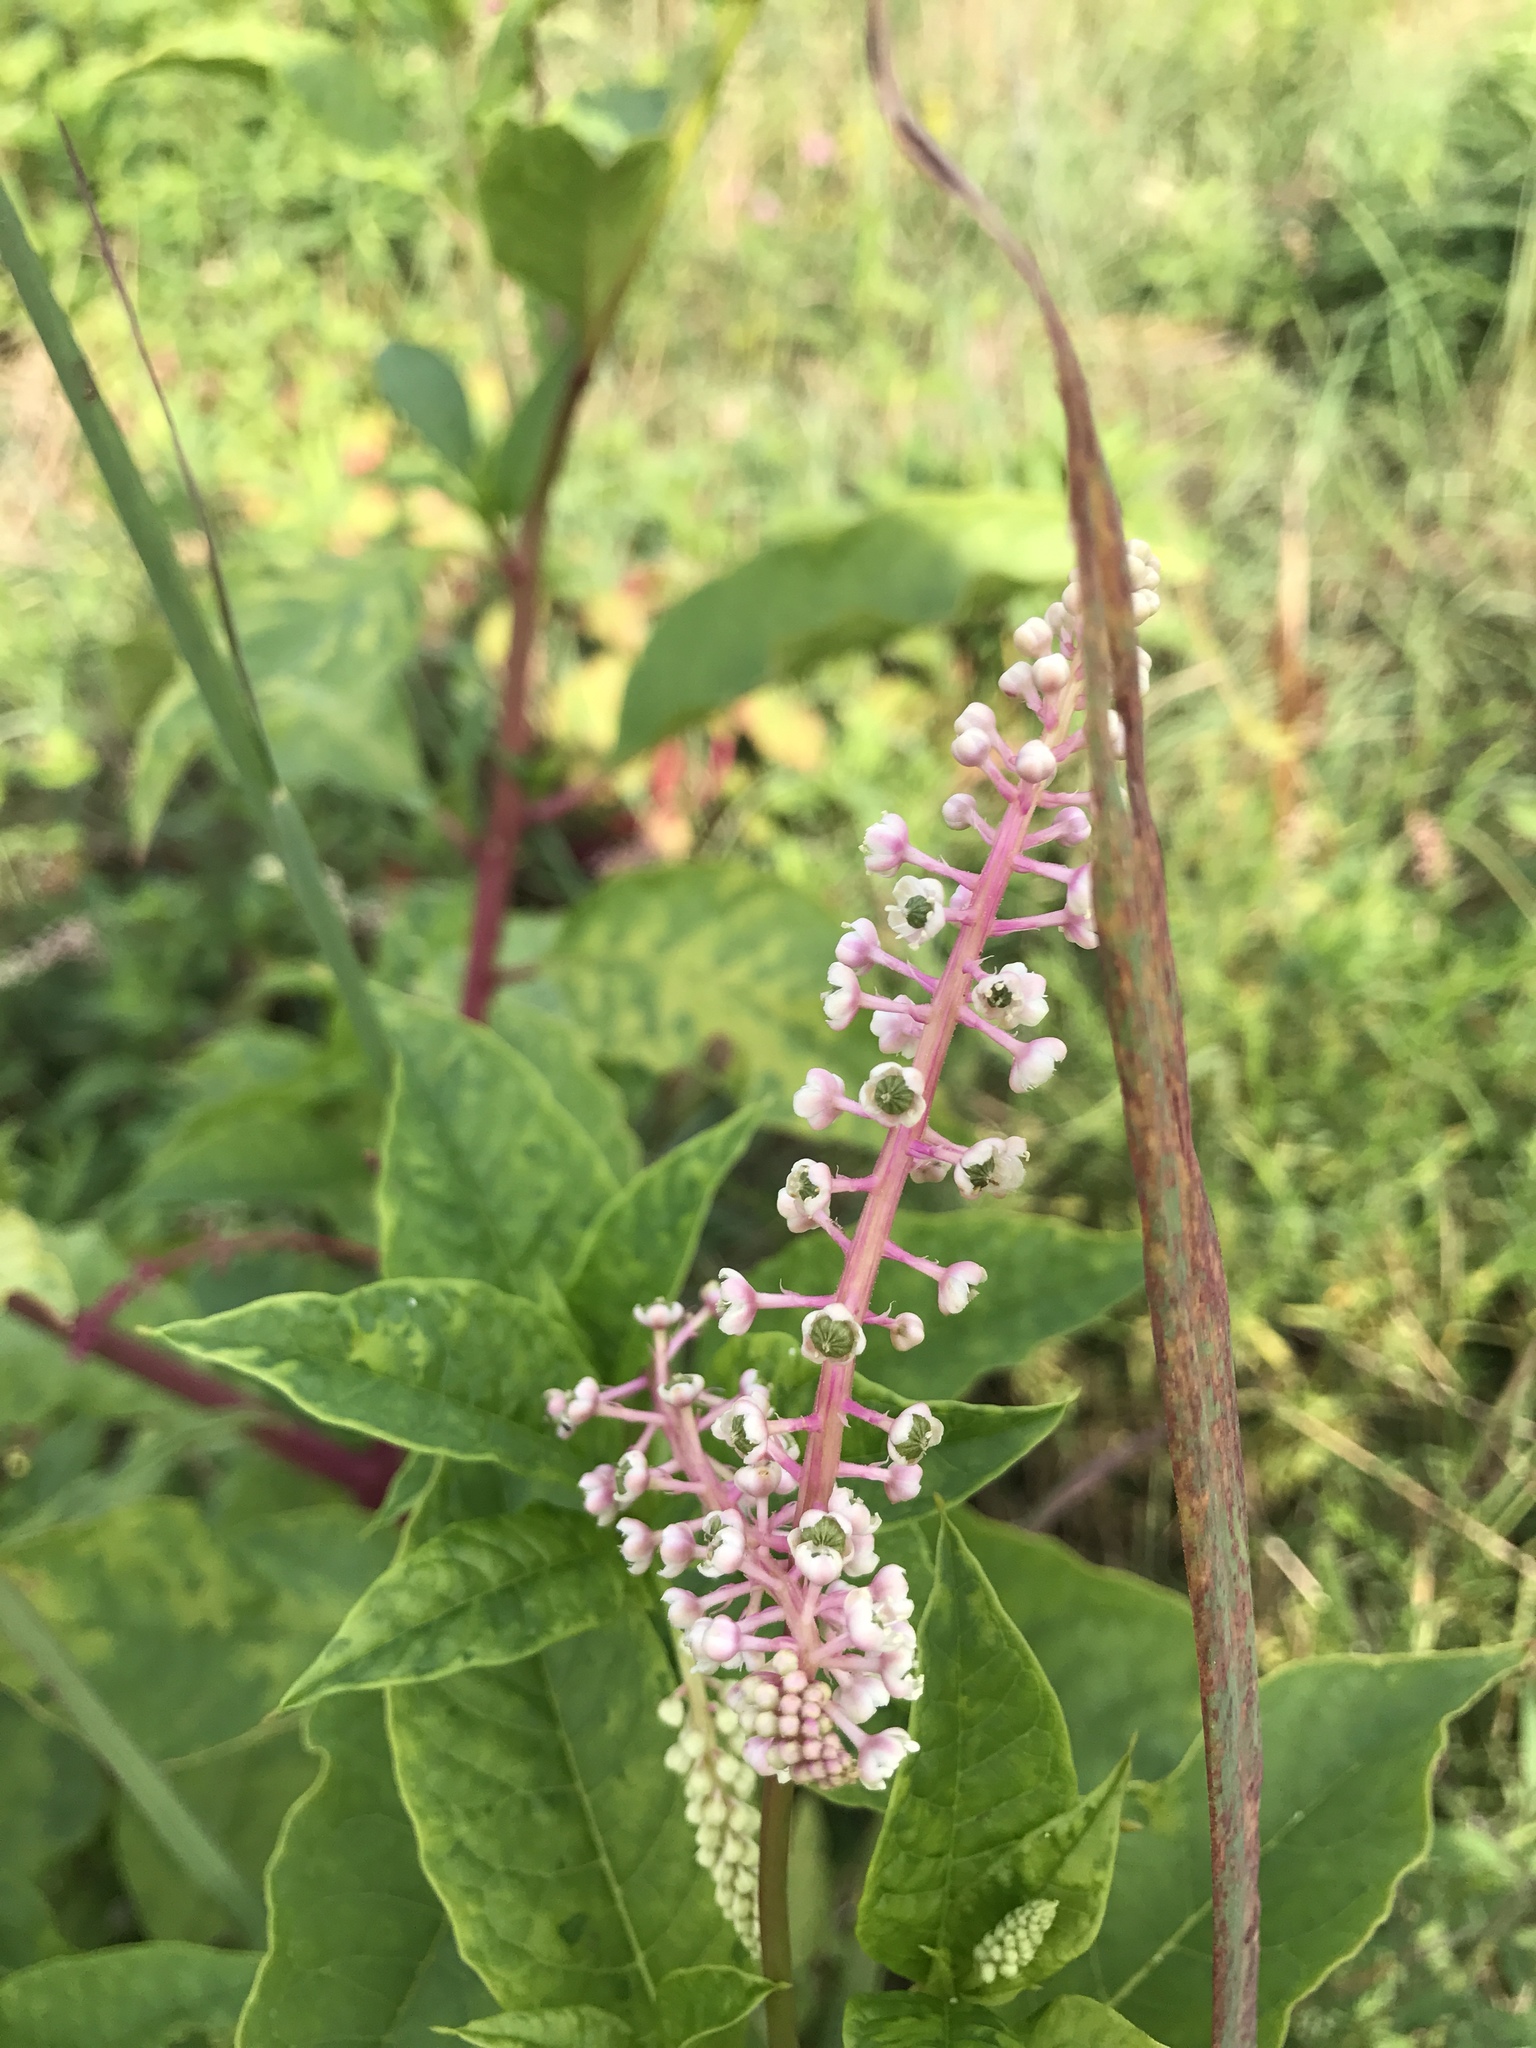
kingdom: Plantae
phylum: Tracheophyta
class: Magnoliopsida
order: Caryophyllales
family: Phytolaccaceae
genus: Phytolacca
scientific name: Phytolacca americana
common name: American pokeweed
